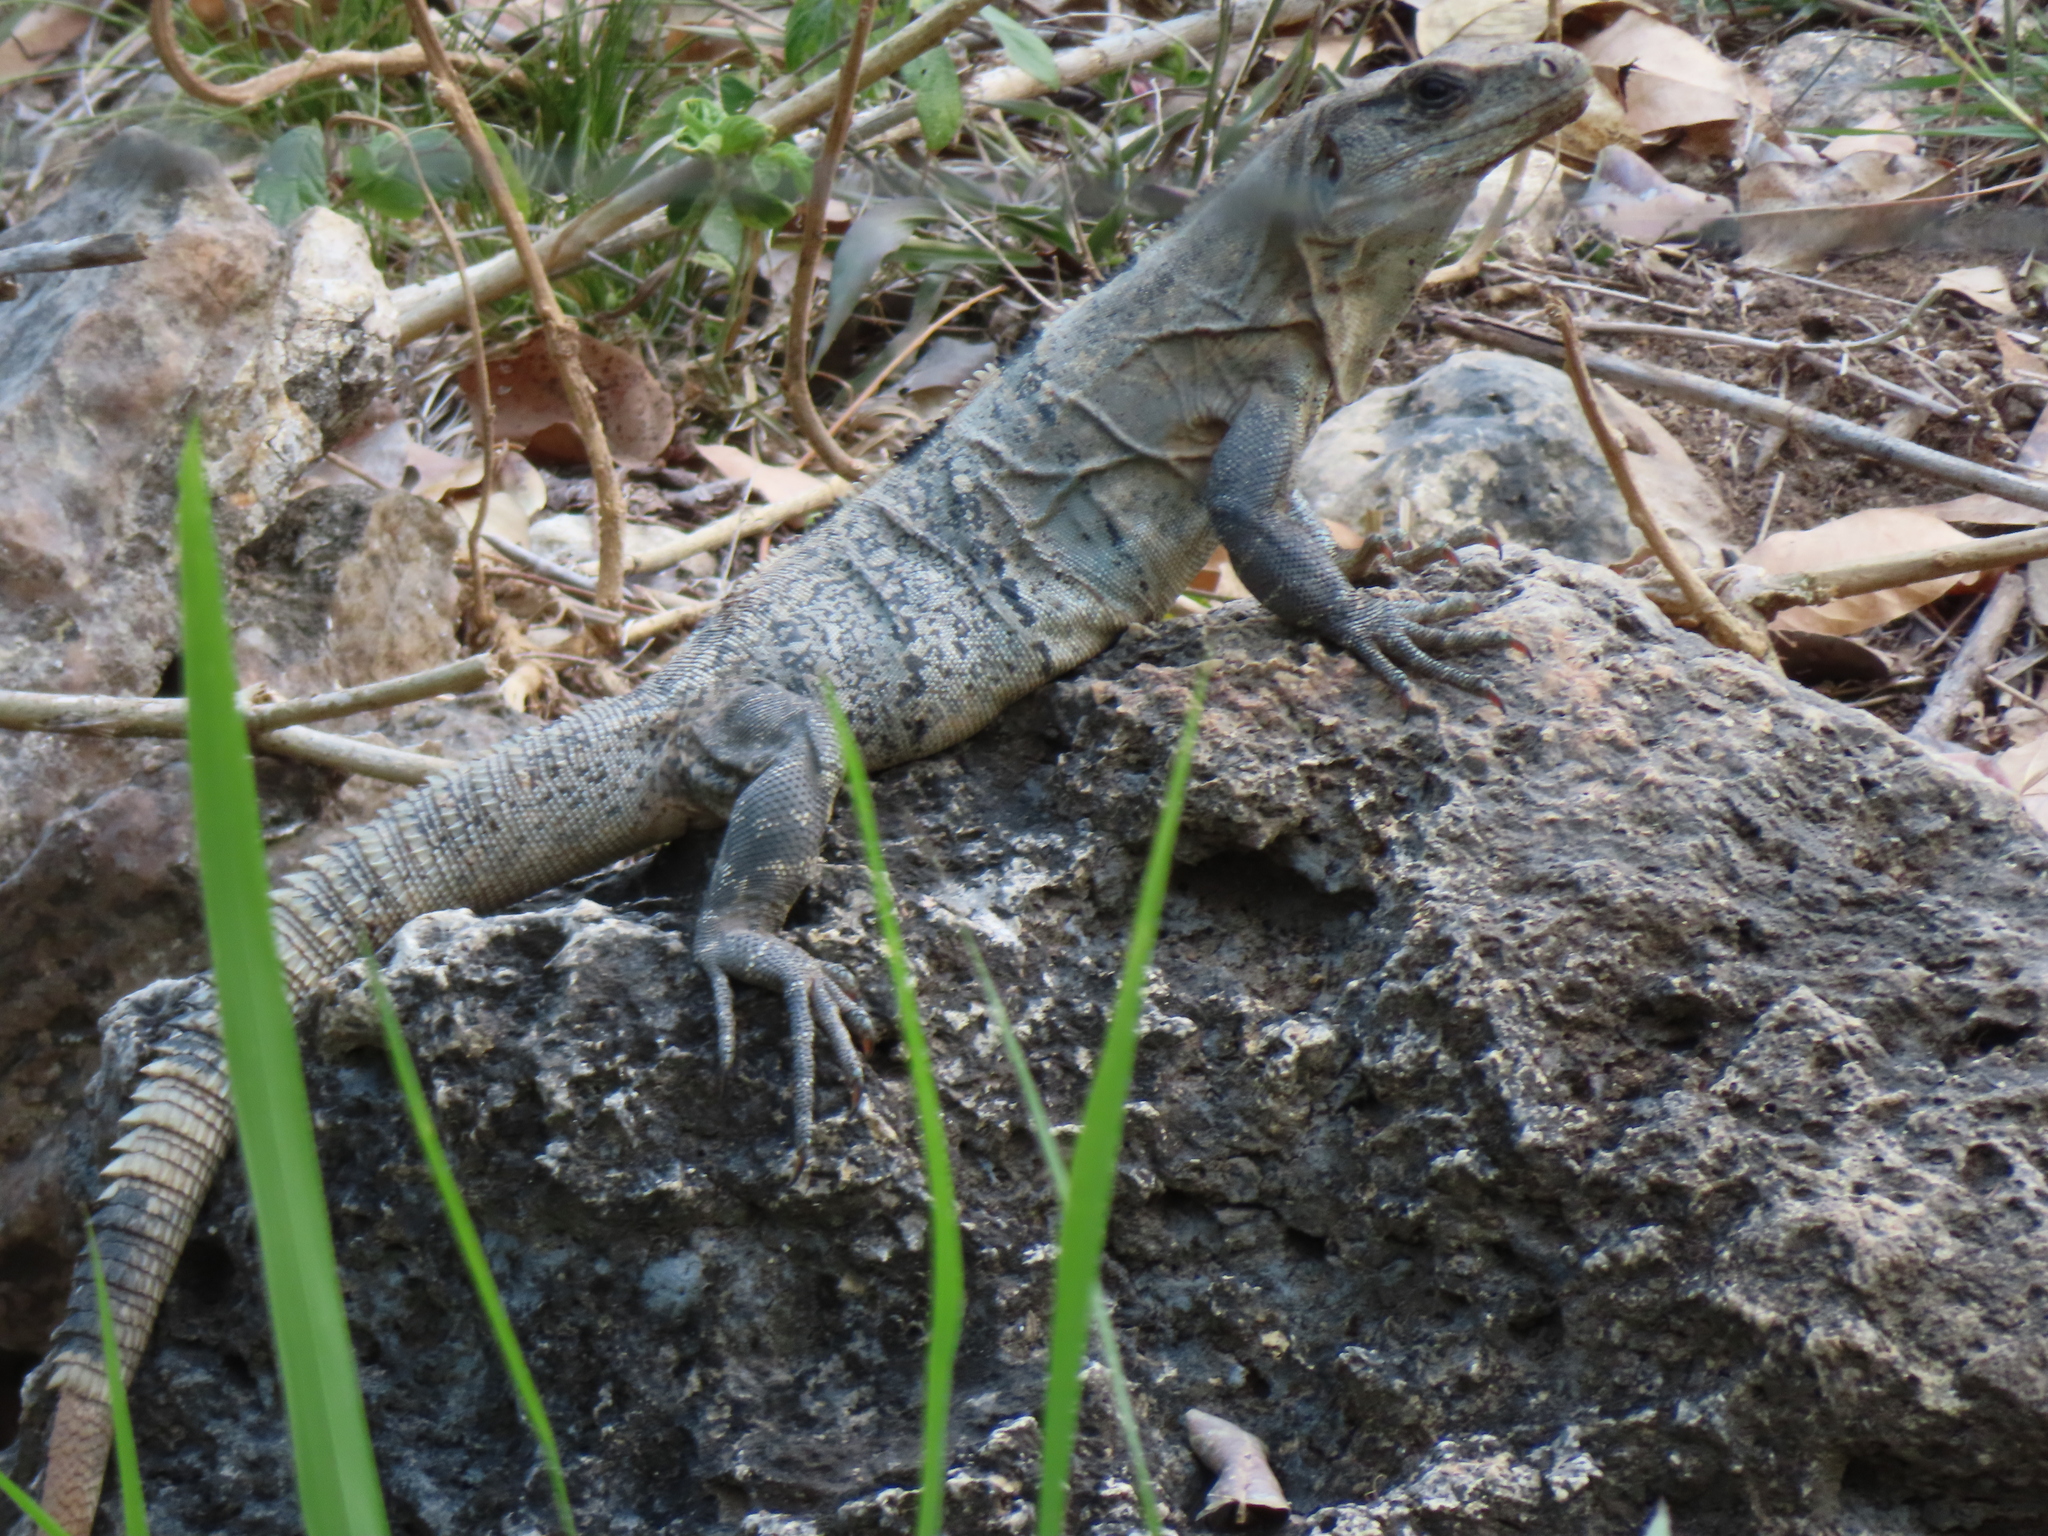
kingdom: Animalia
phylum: Chordata
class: Squamata
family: Iguanidae
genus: Ctenosaura
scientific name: Ctenosaura similis
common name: Black spiny-tailed iguana
